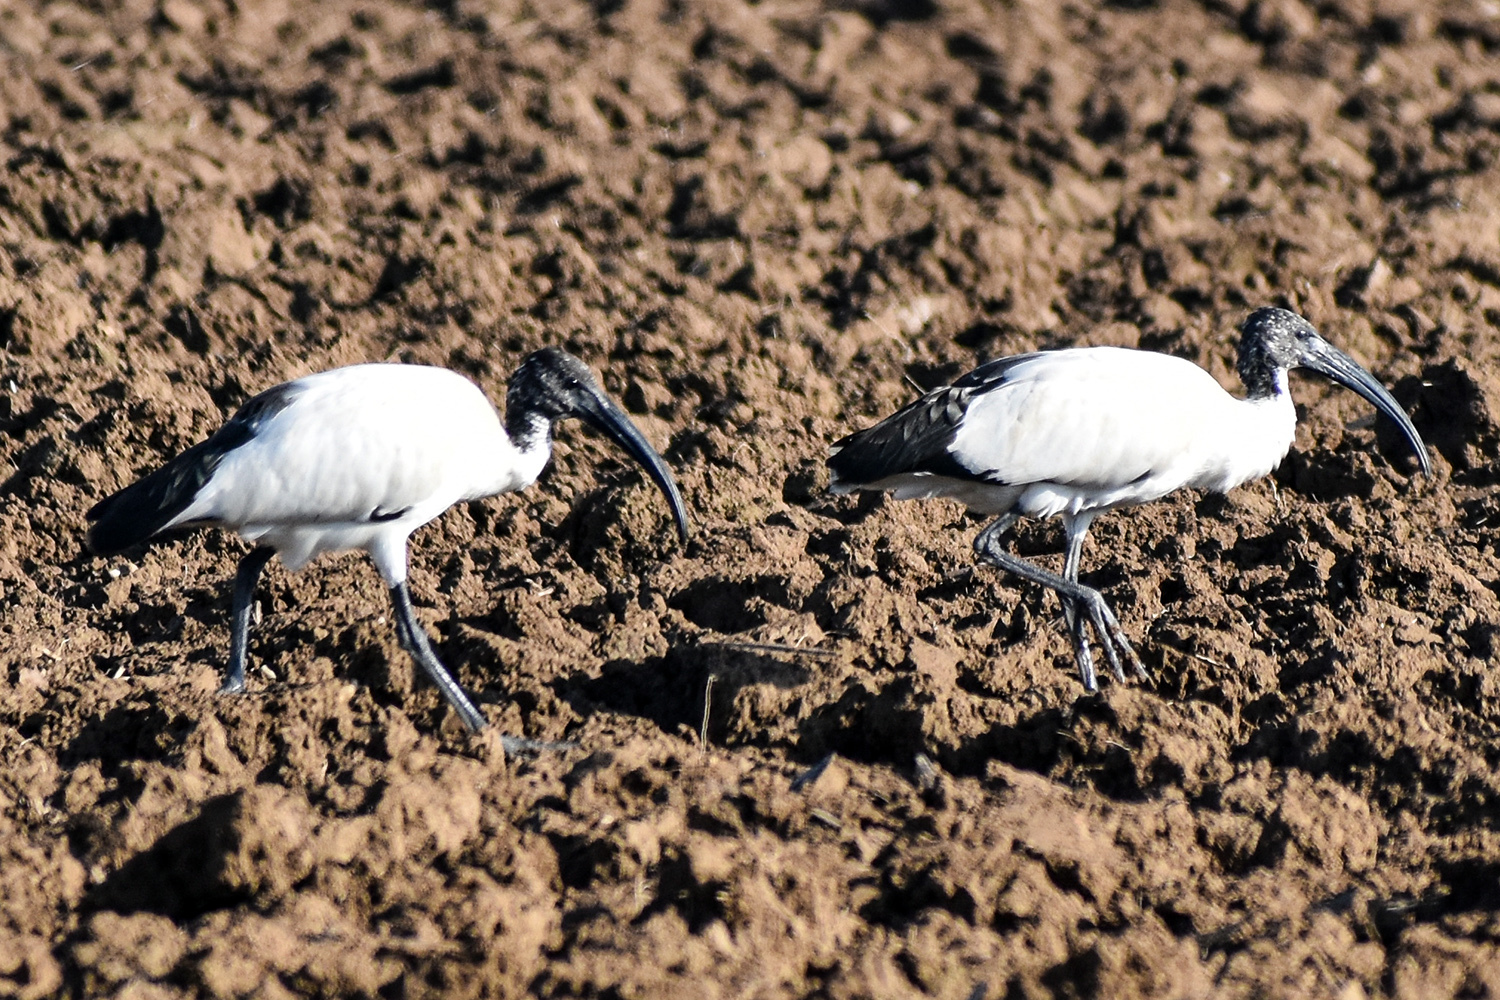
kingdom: Animalia
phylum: Chordata
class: Aves
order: Pelecaniformes
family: Threskiornithidae
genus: Threskiornis
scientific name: Threskiornis aethiopicus
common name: Sacred ibis
